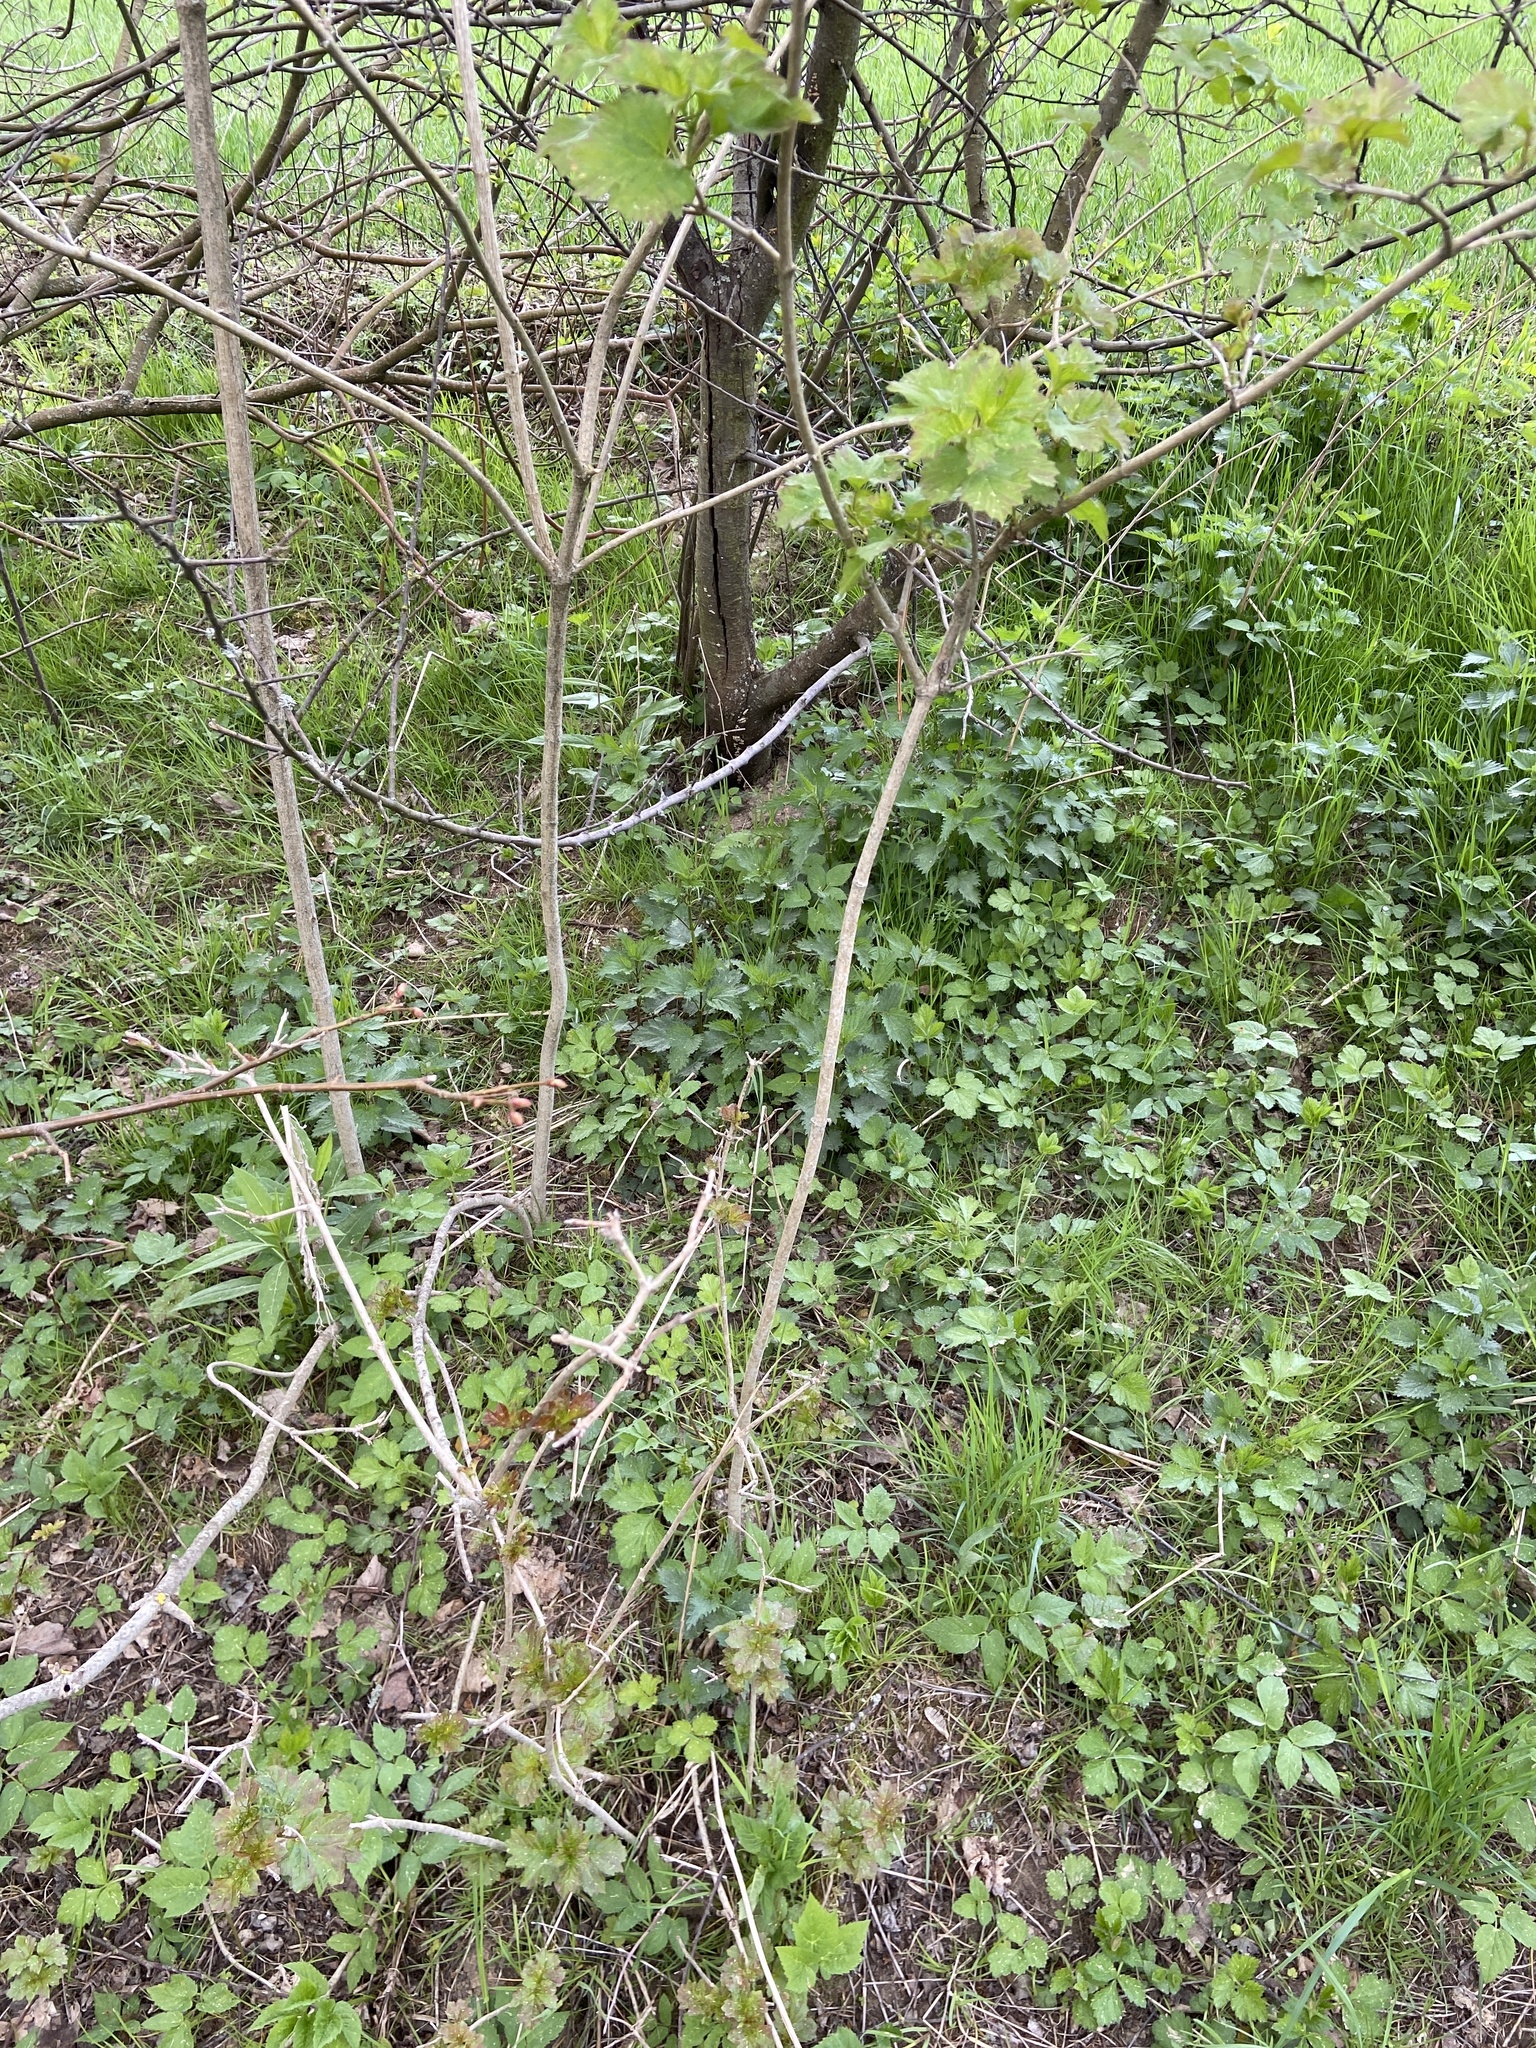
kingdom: Plantae
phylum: Tracheophyta
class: Magnoliopsida
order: Dipsacales
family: Viburnaceae
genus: Viburnum
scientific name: Viburnum opulus
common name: Guelder-rose
